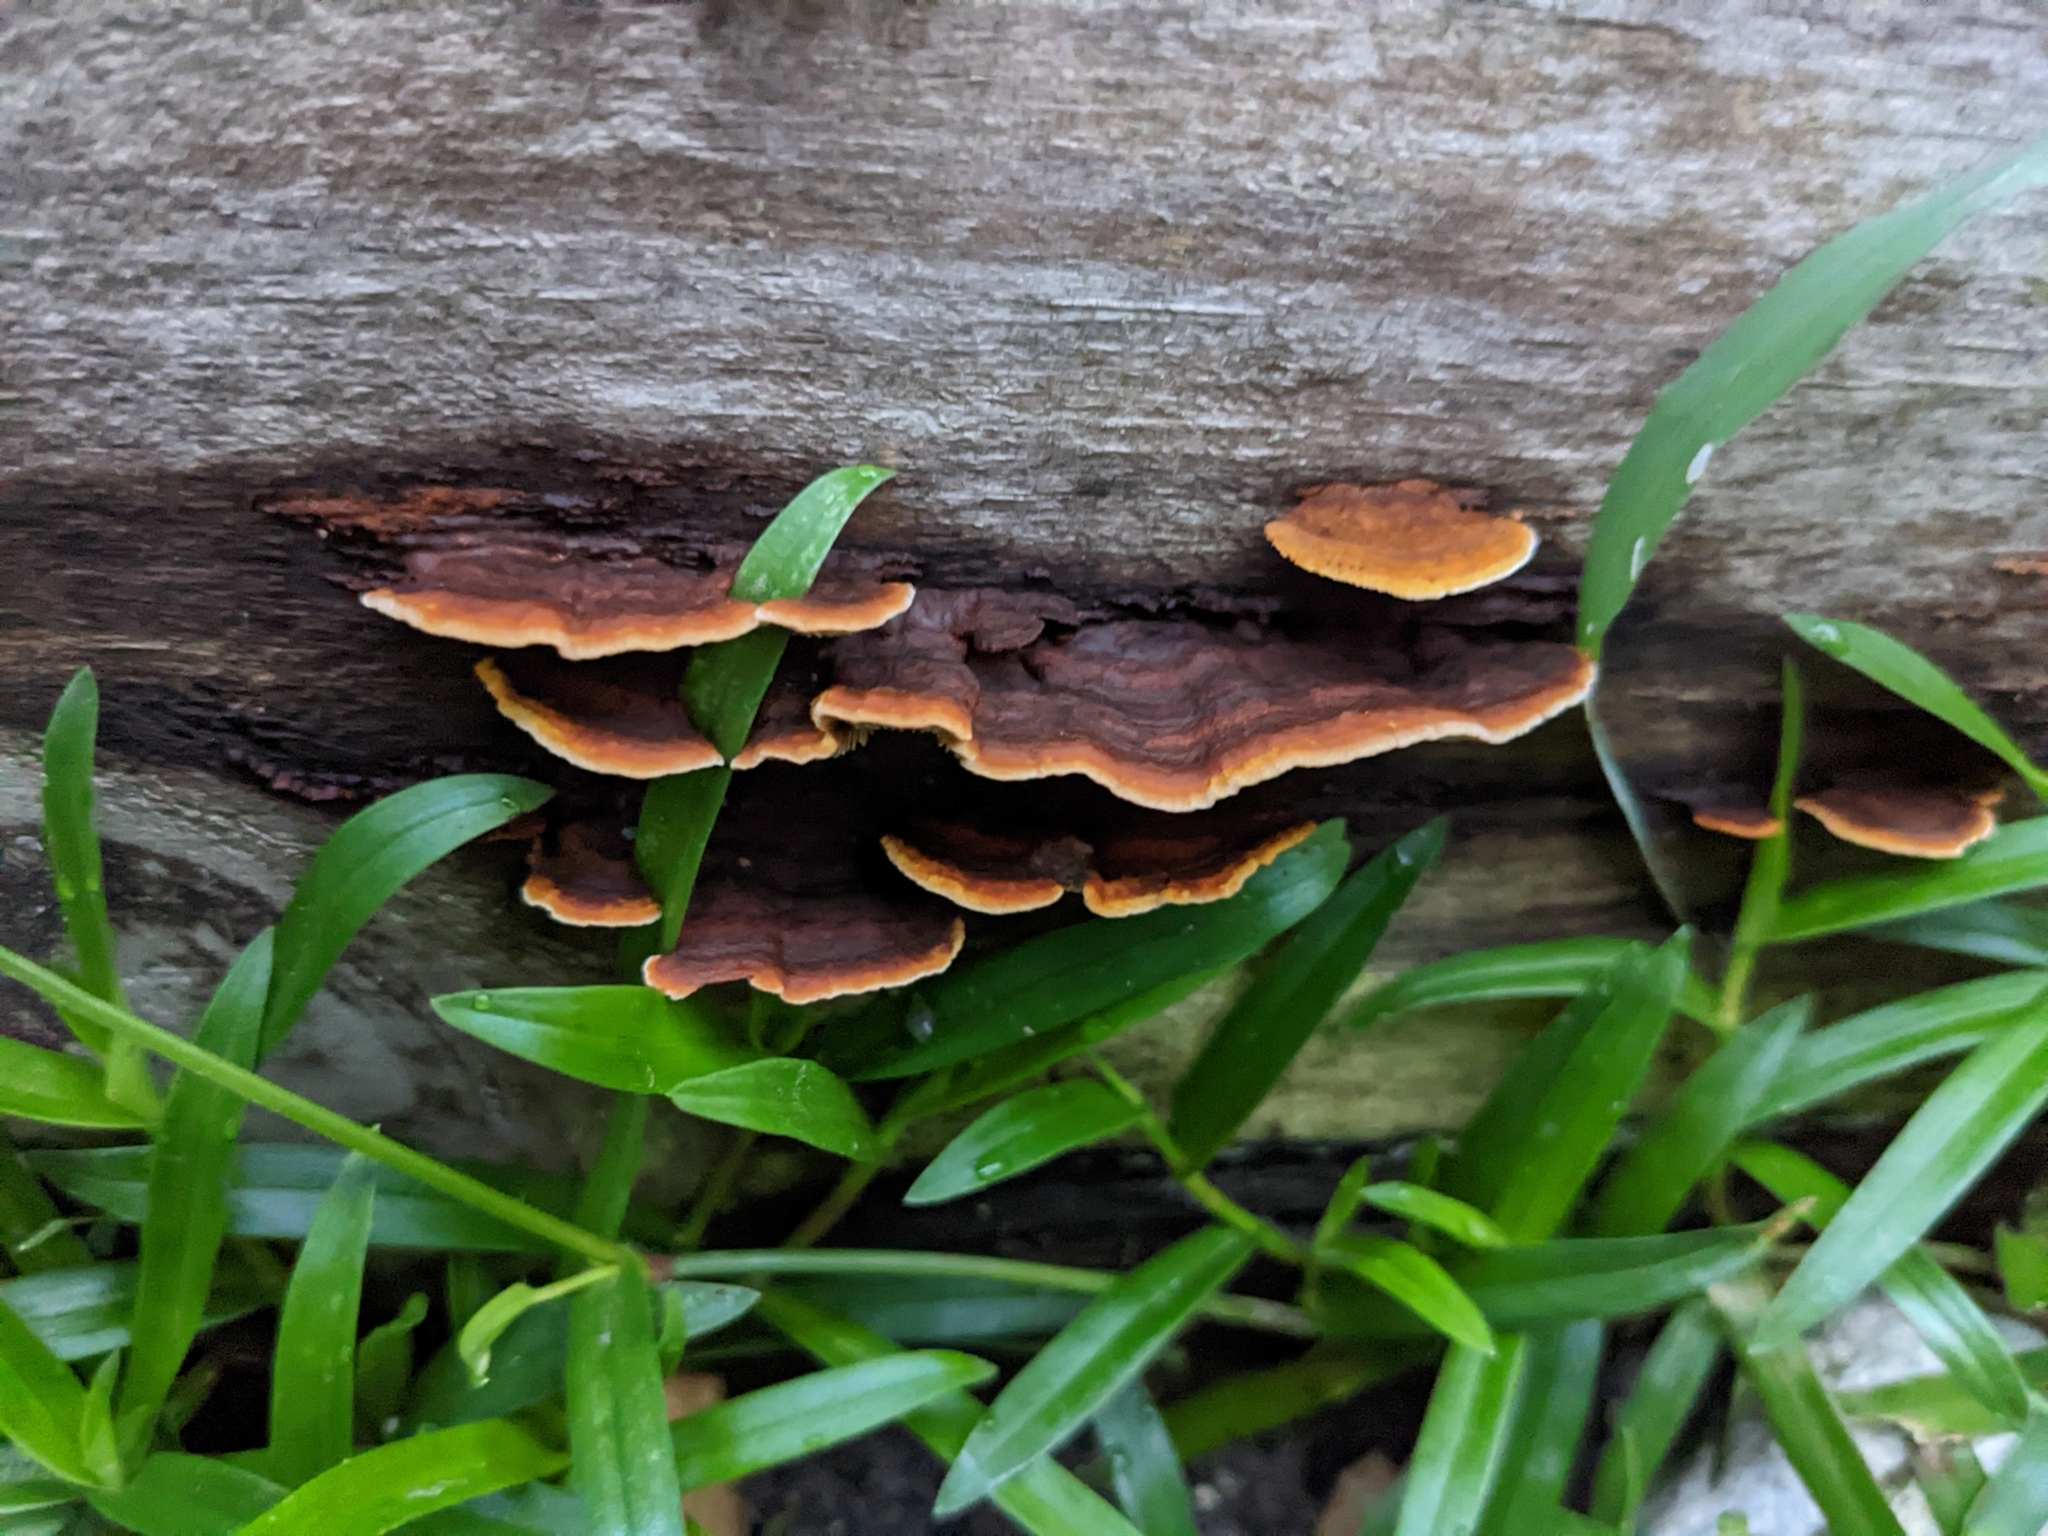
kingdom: Fungi
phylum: Basidiomycota
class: Agaricomycetes
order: Gloeophyllales
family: Gloeophyllaceae
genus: Gloeophyllum
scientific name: Gloeophyllum sepiarium
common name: Conifer mazegill
